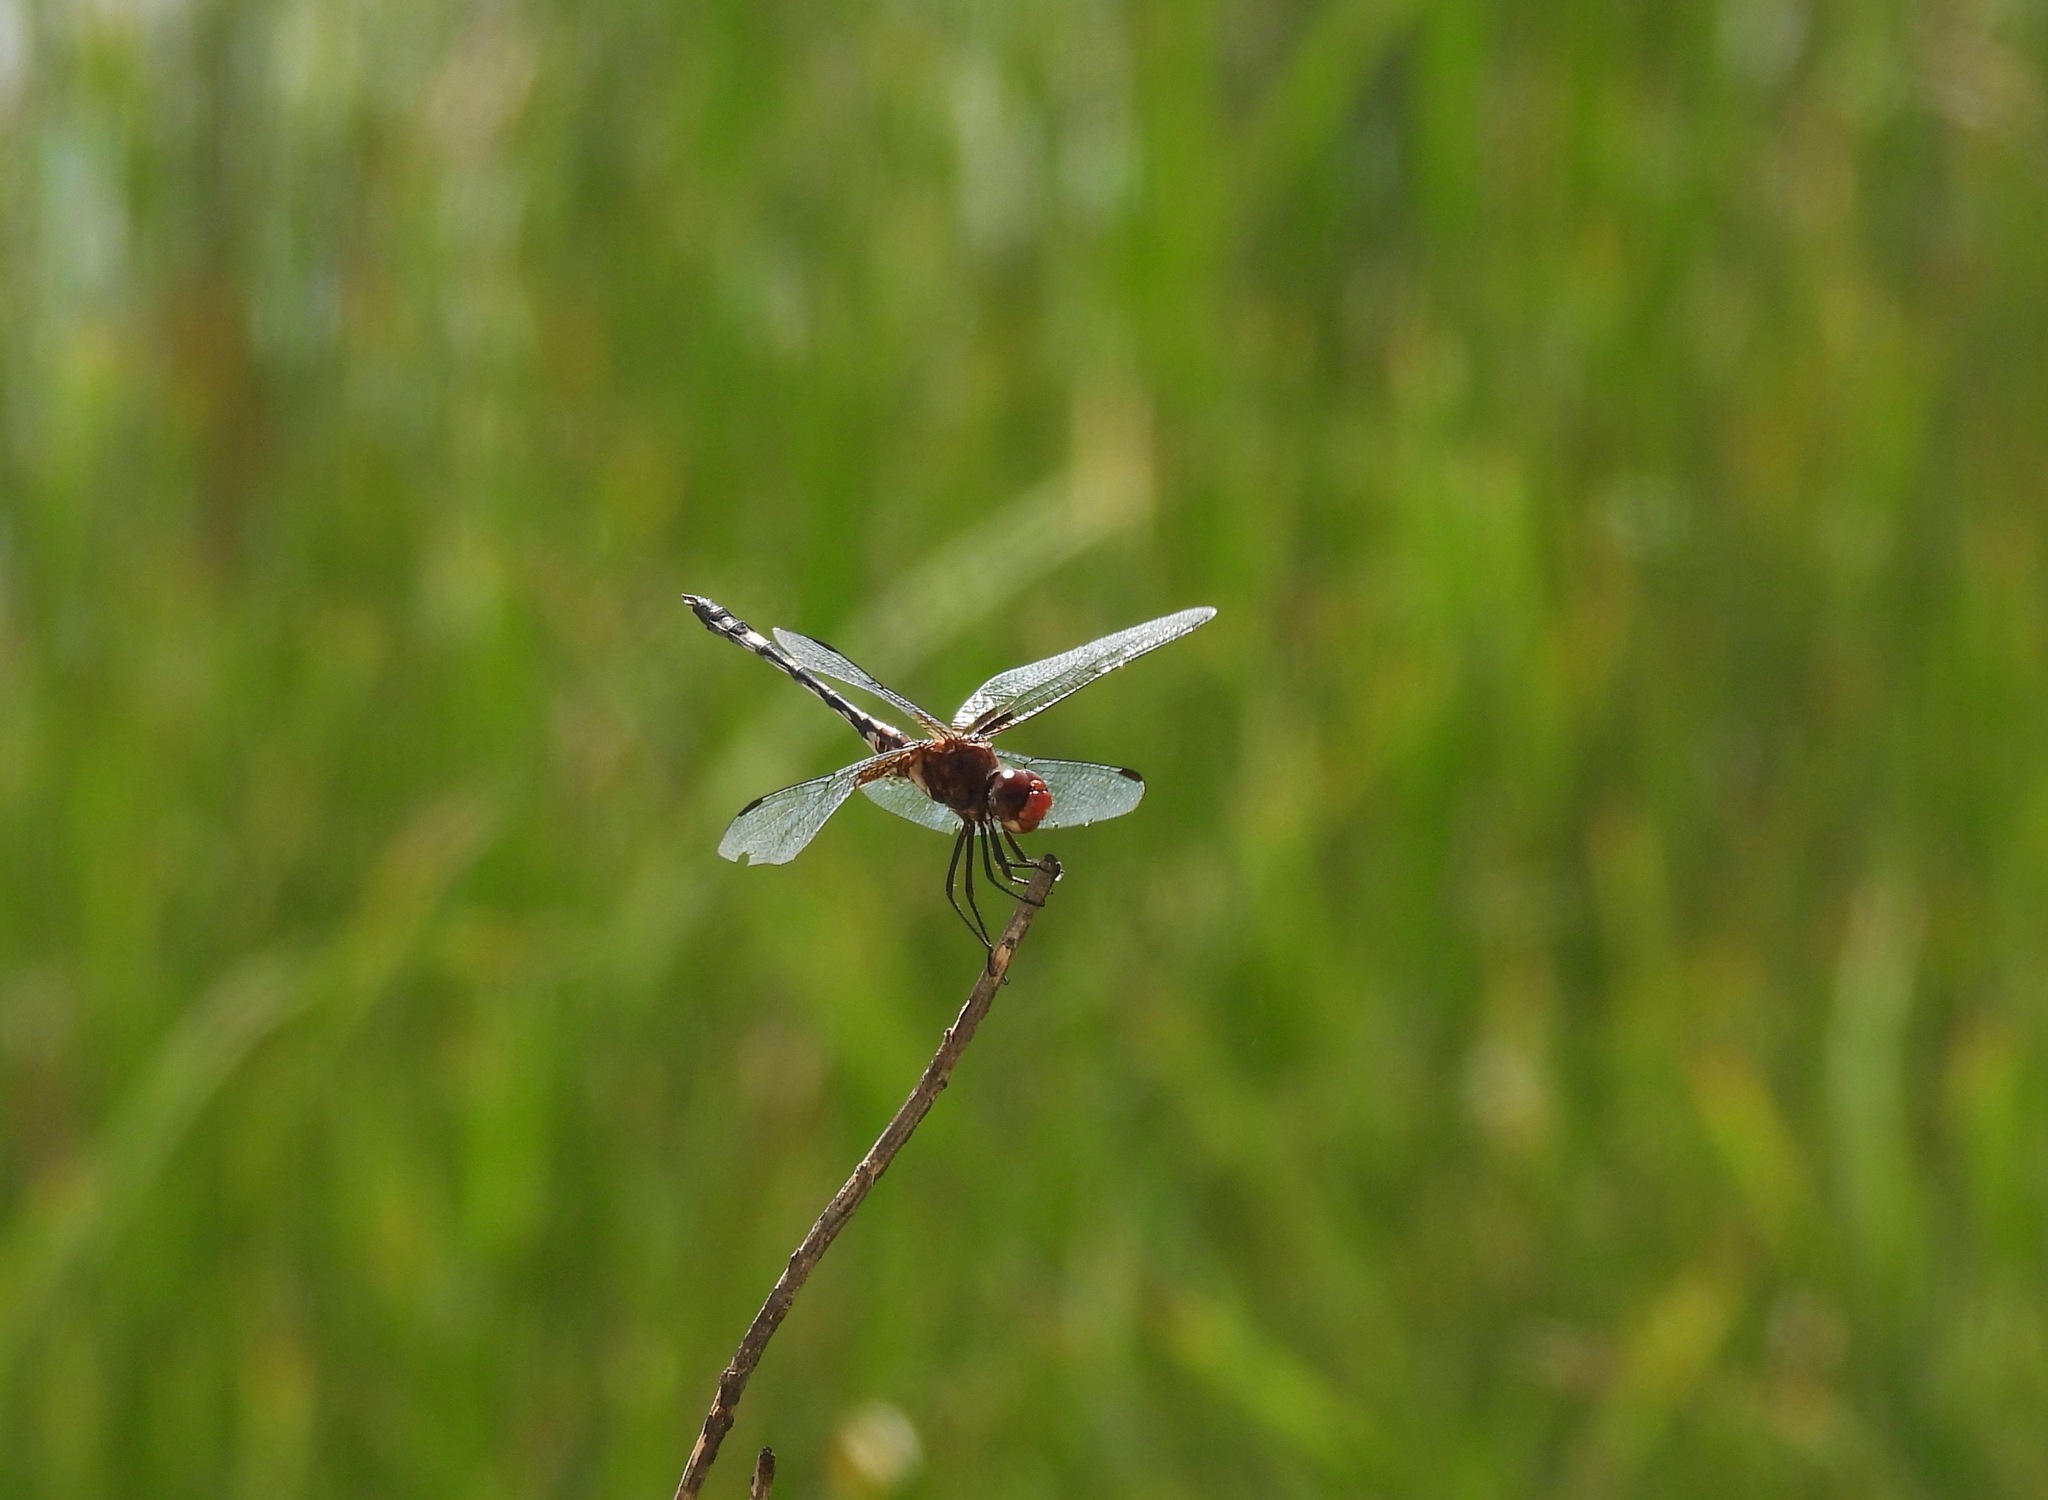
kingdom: Animalia
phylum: Arthropoda
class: Insecta
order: Odonata
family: Libellulidae
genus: Dythemis
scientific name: Dythemis fugax
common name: Checkered setwing
